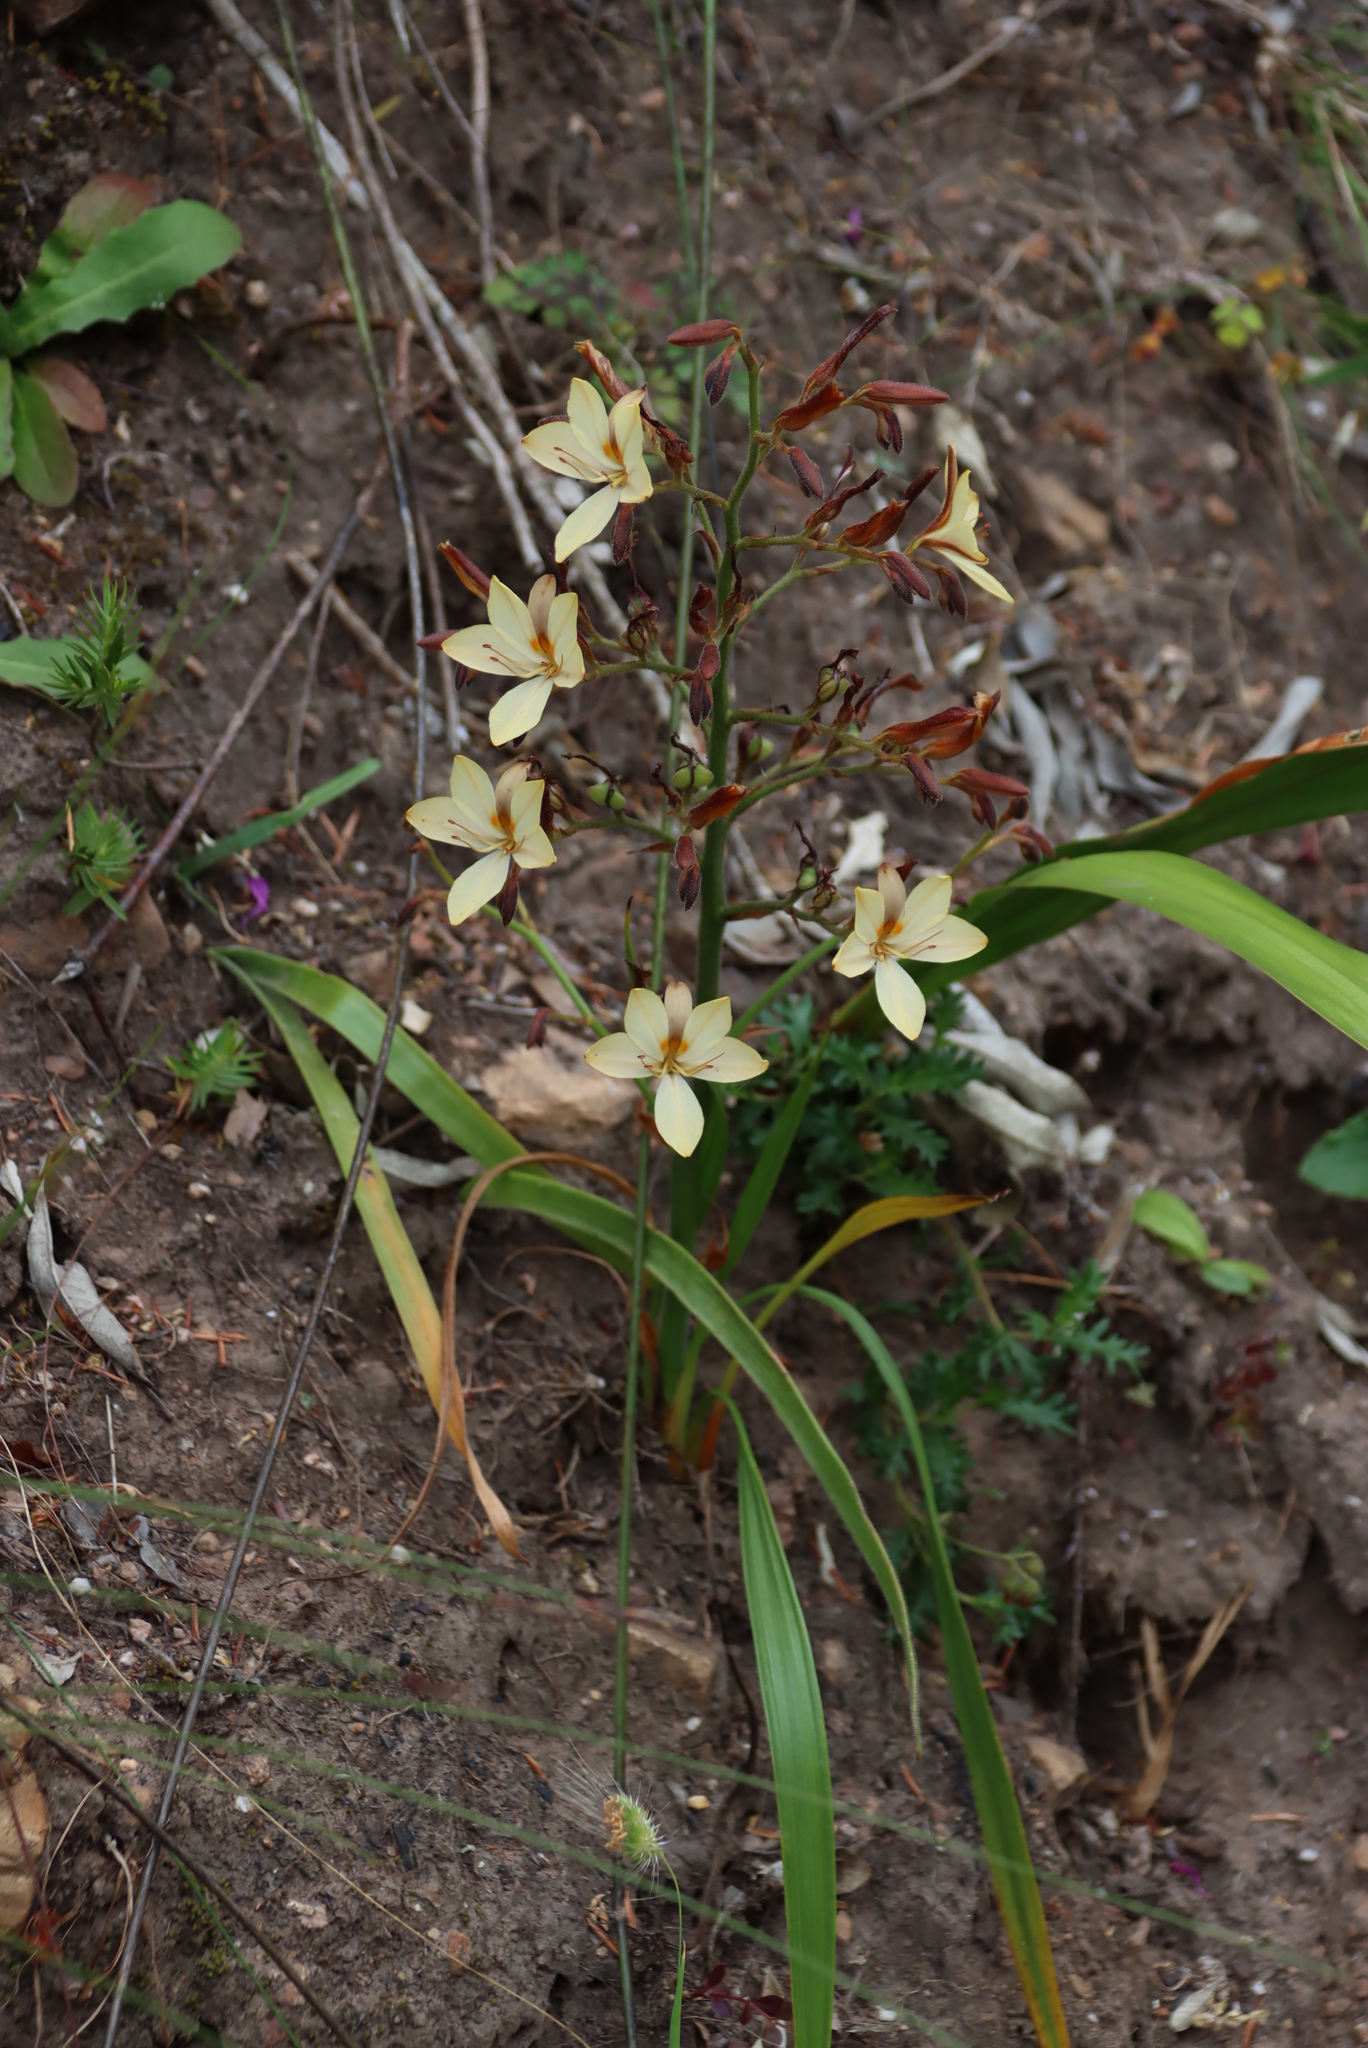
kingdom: Plantae
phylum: Tracheophyta
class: Liliopsida
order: Commelinales
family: Haemodoraceae
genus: Wachendorfia
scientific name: Wachendorfia paniculata
